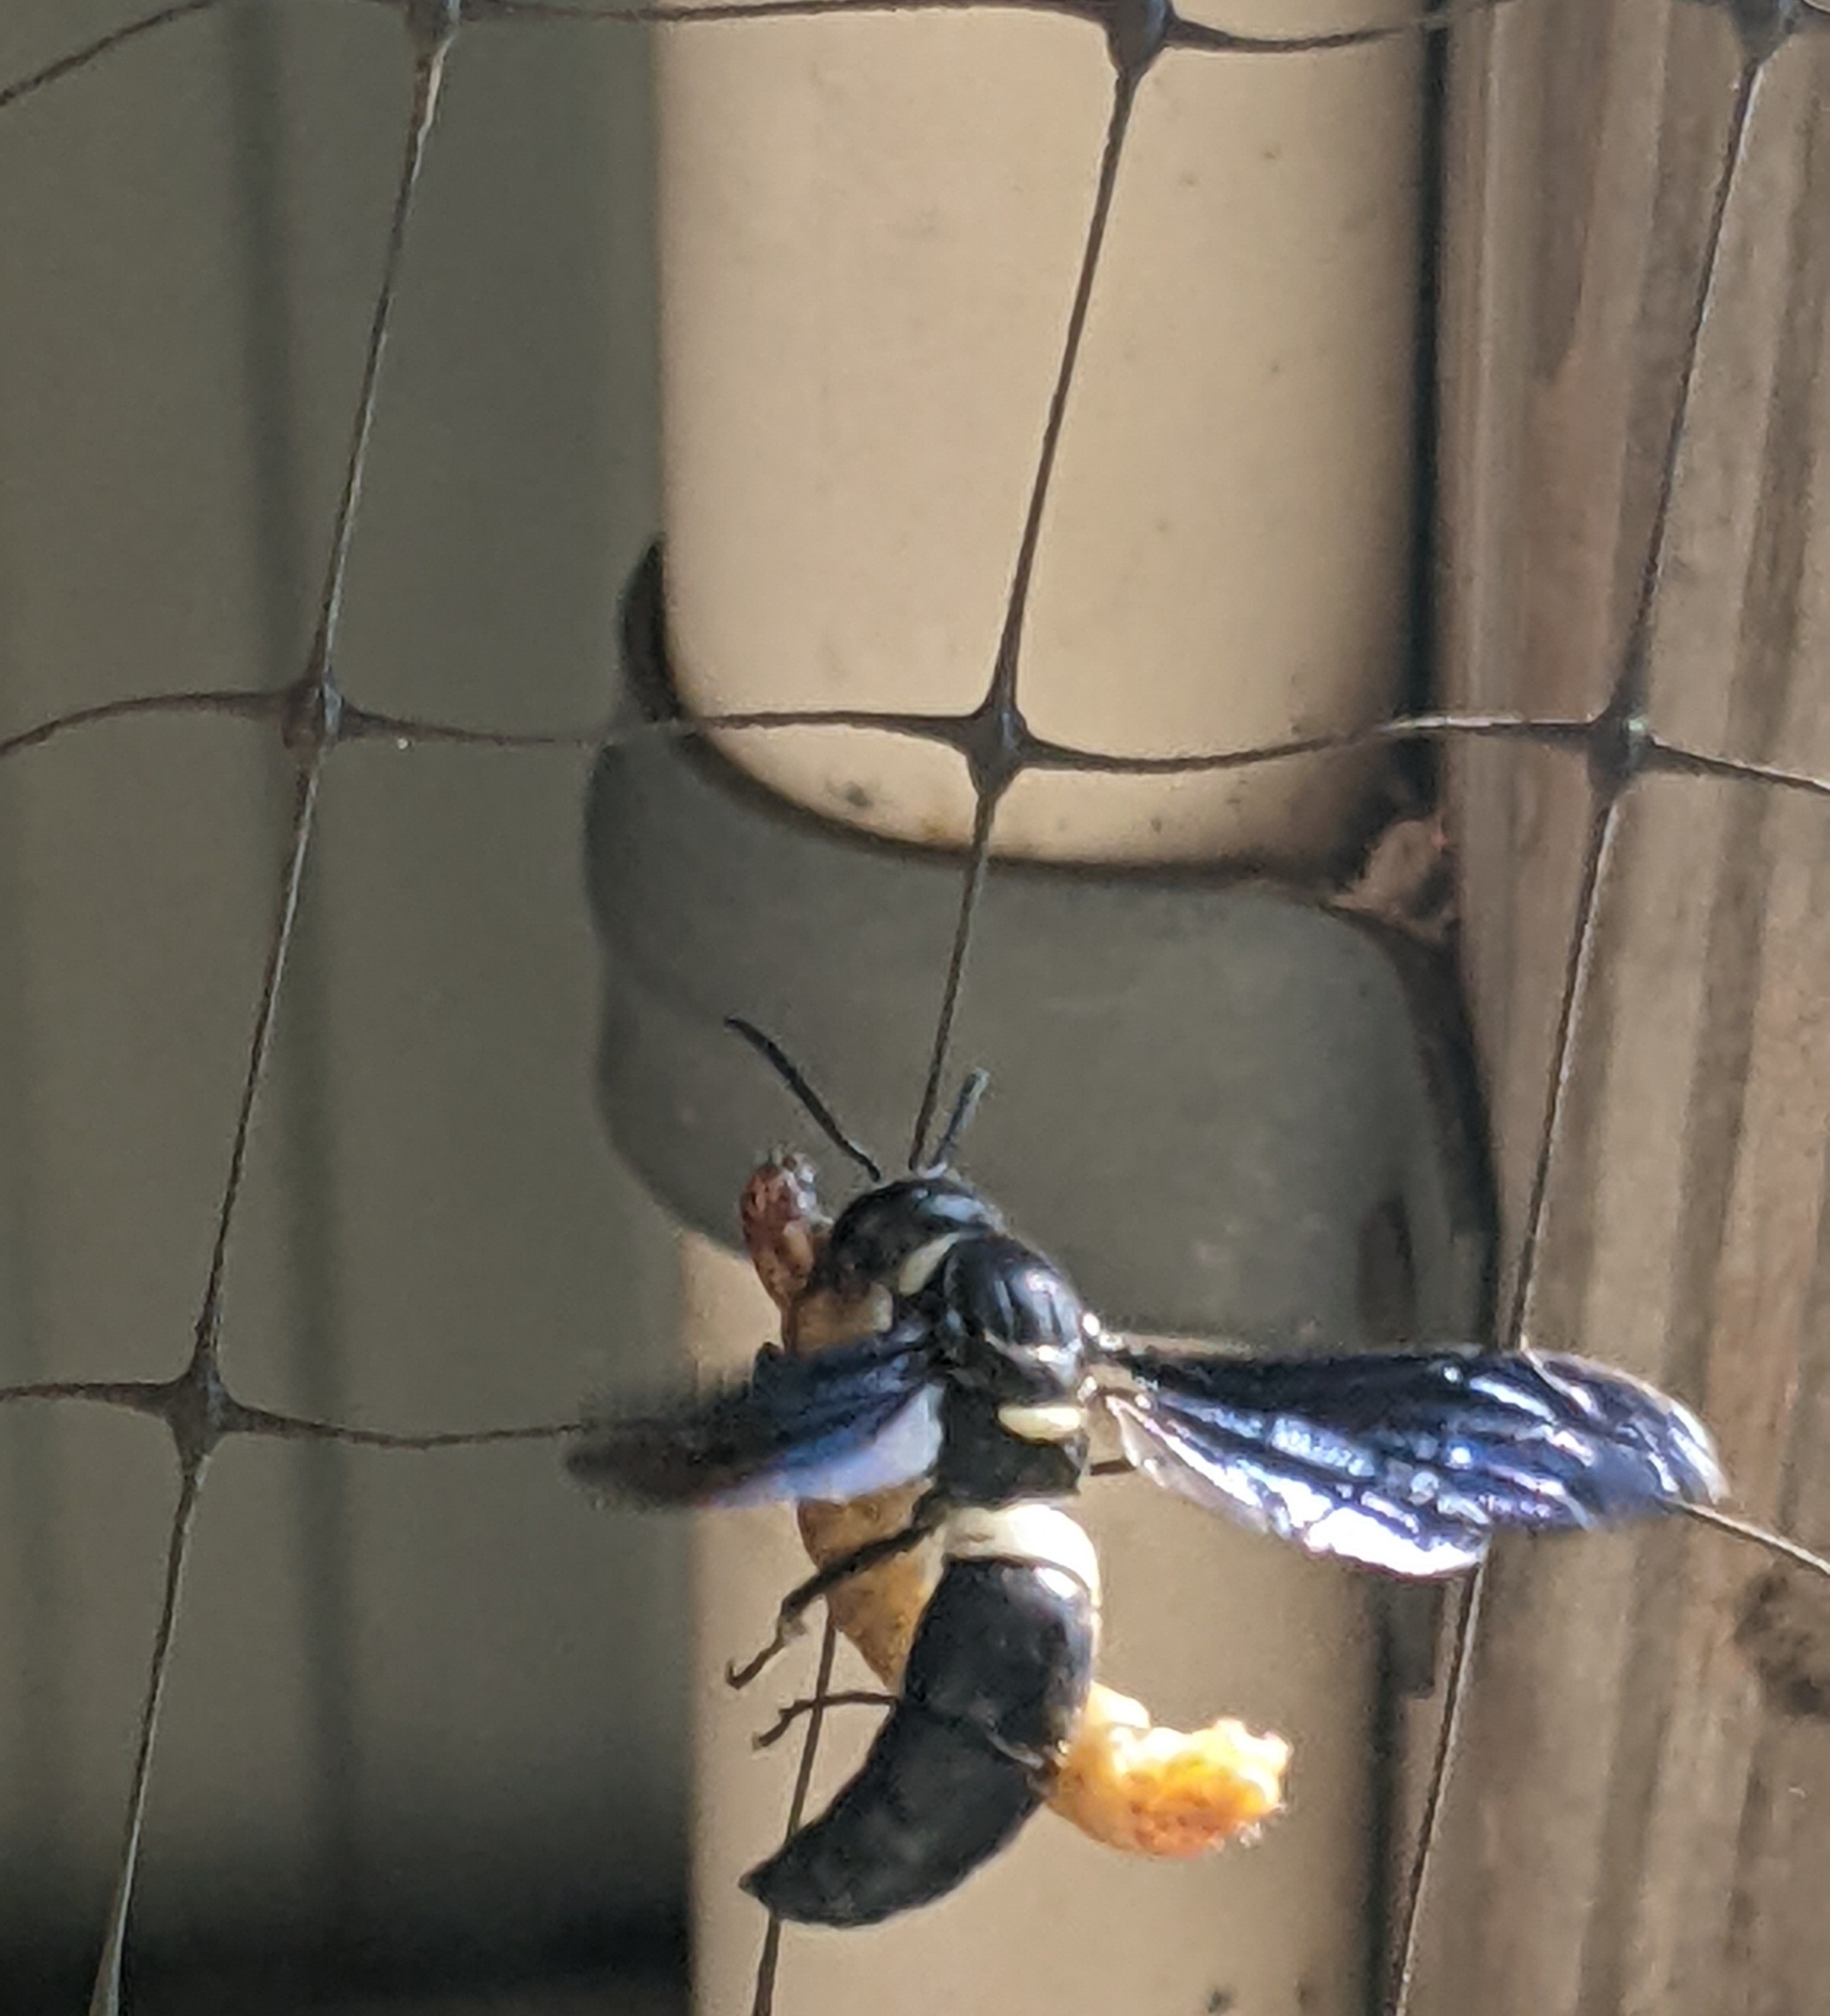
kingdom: Animalia
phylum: Arthropoda
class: Insecta
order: Hymenoptera
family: Eumenidae
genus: Monobia
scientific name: Monobia quadridens
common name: Four-toothed mason wasp
